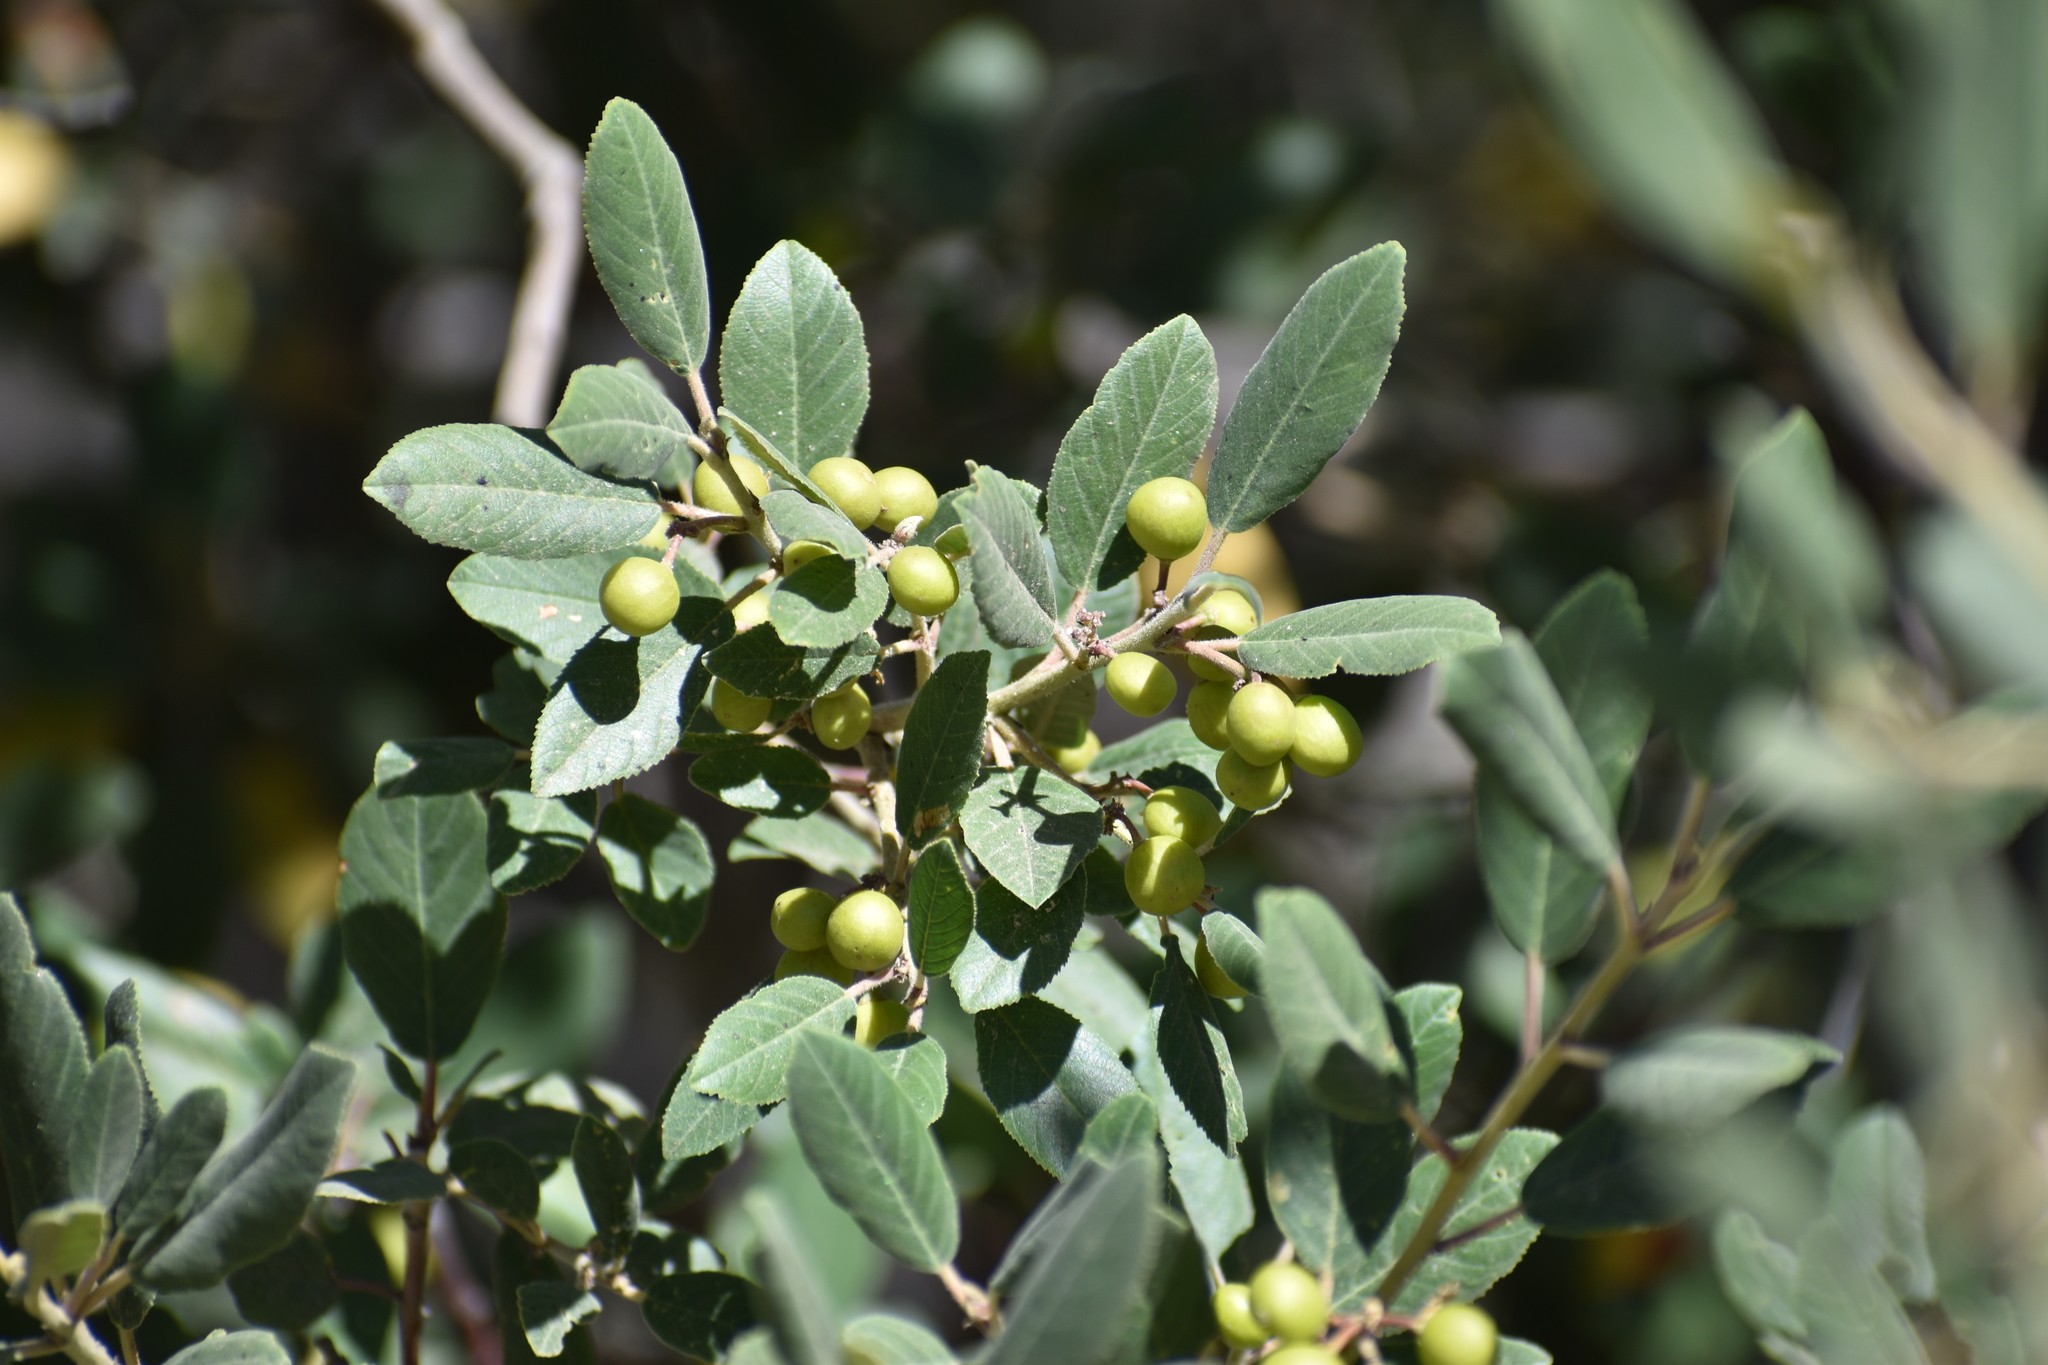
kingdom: Plantae
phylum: Tracheophyta
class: Magnoliopsida
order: Rosales
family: Rhamnaceae
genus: Frangula
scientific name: Frangula californica
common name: California buckthorn
